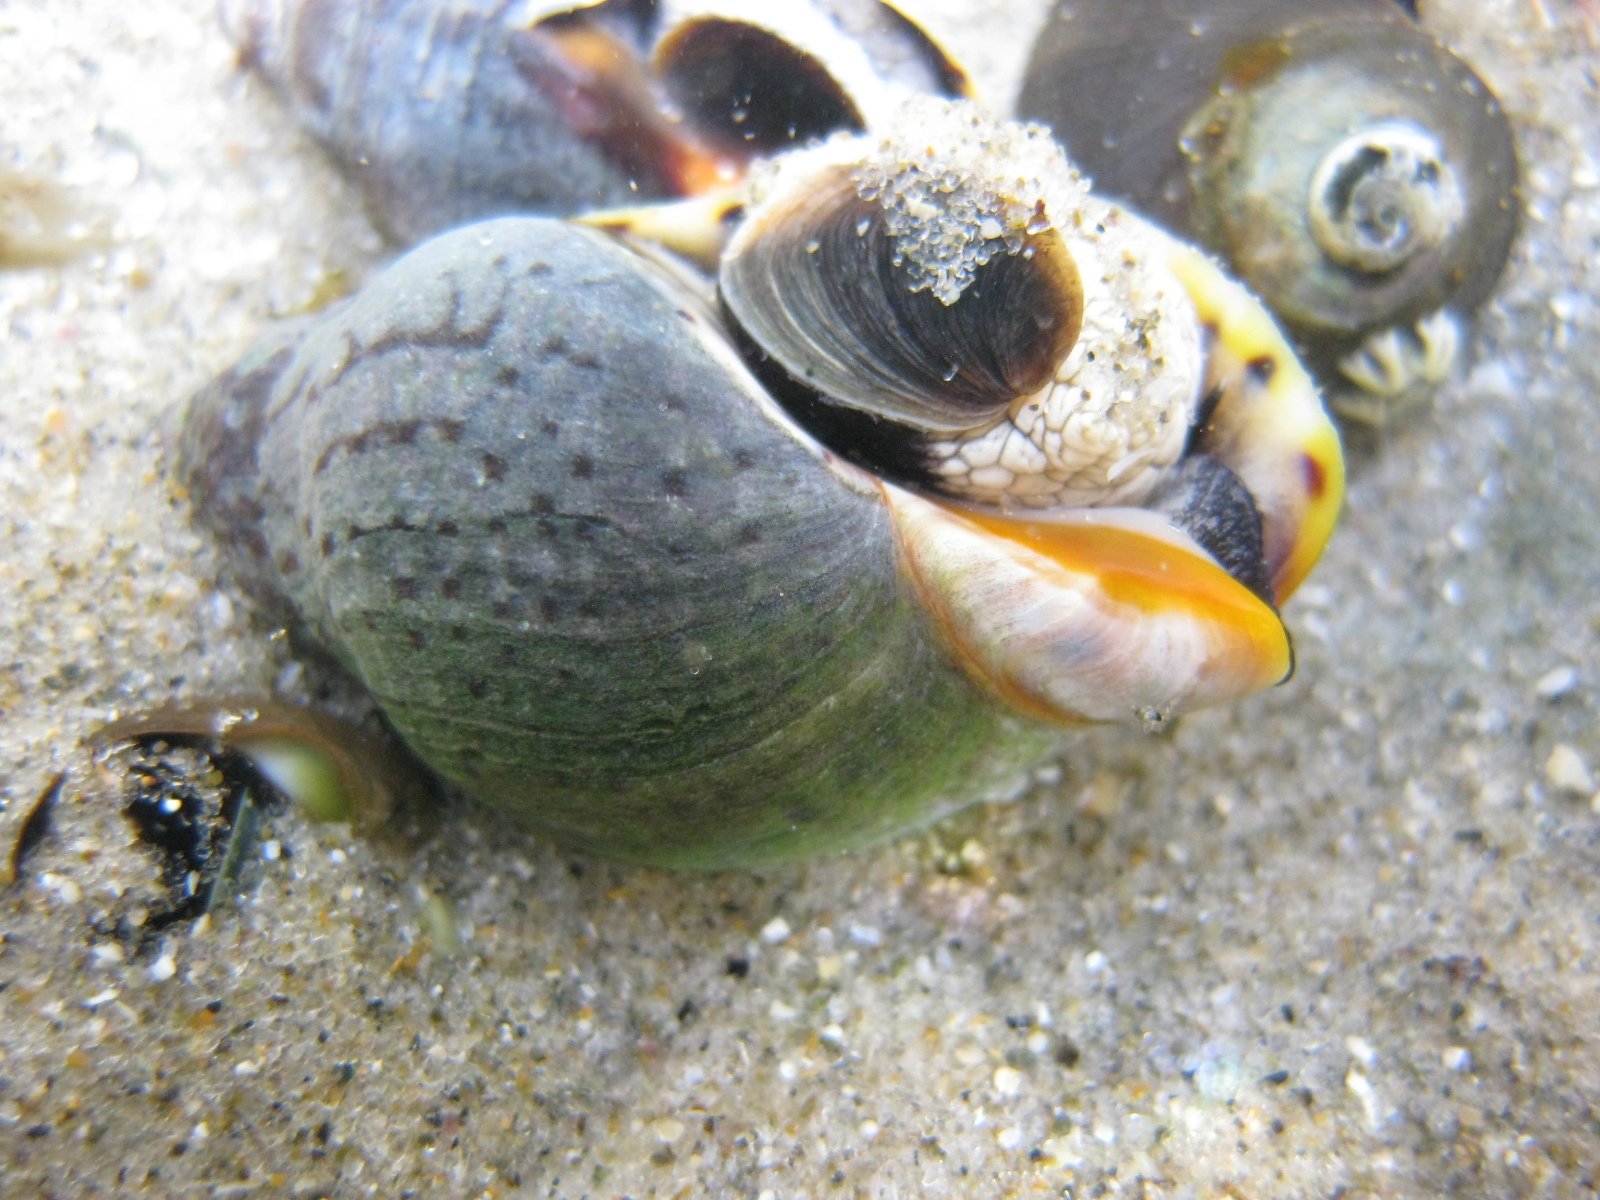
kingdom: Animalia
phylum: Mollusca
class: Gastropoda
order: Neogastropoda
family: Cominellidae
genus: Cominella
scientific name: Cominella maculosa
